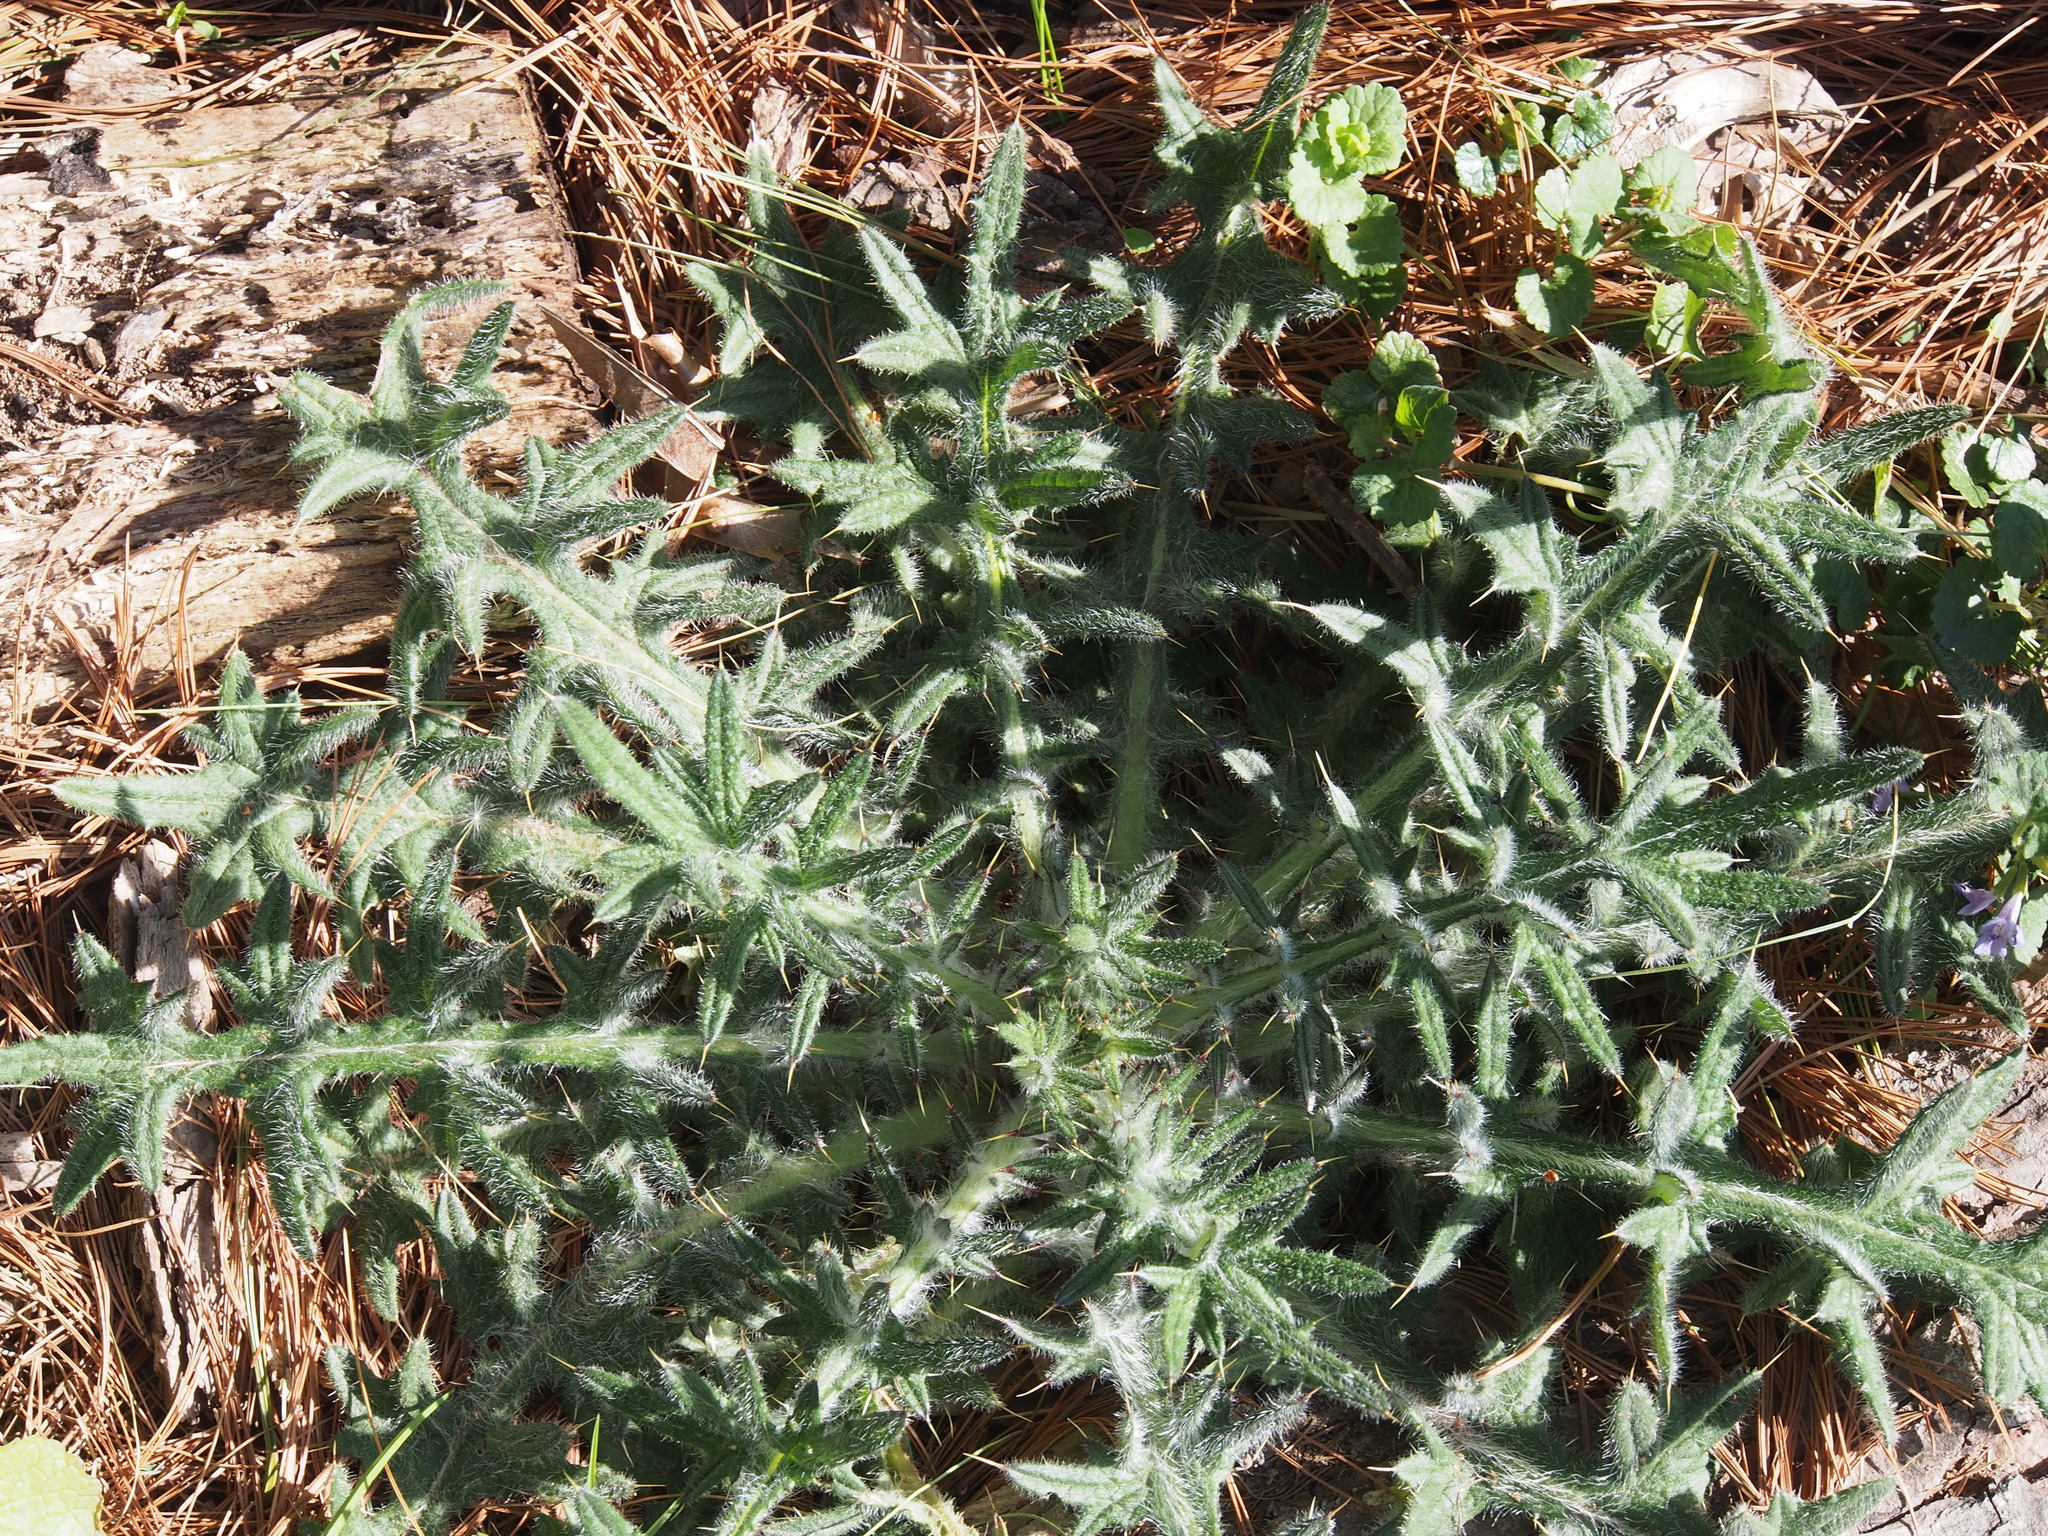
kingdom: Plantae
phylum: Tracheophyta
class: Magnoliopsida
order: Asterales
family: Asteraceae
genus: Cirsium
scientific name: Cirsium vulgare
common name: Bull thistle
